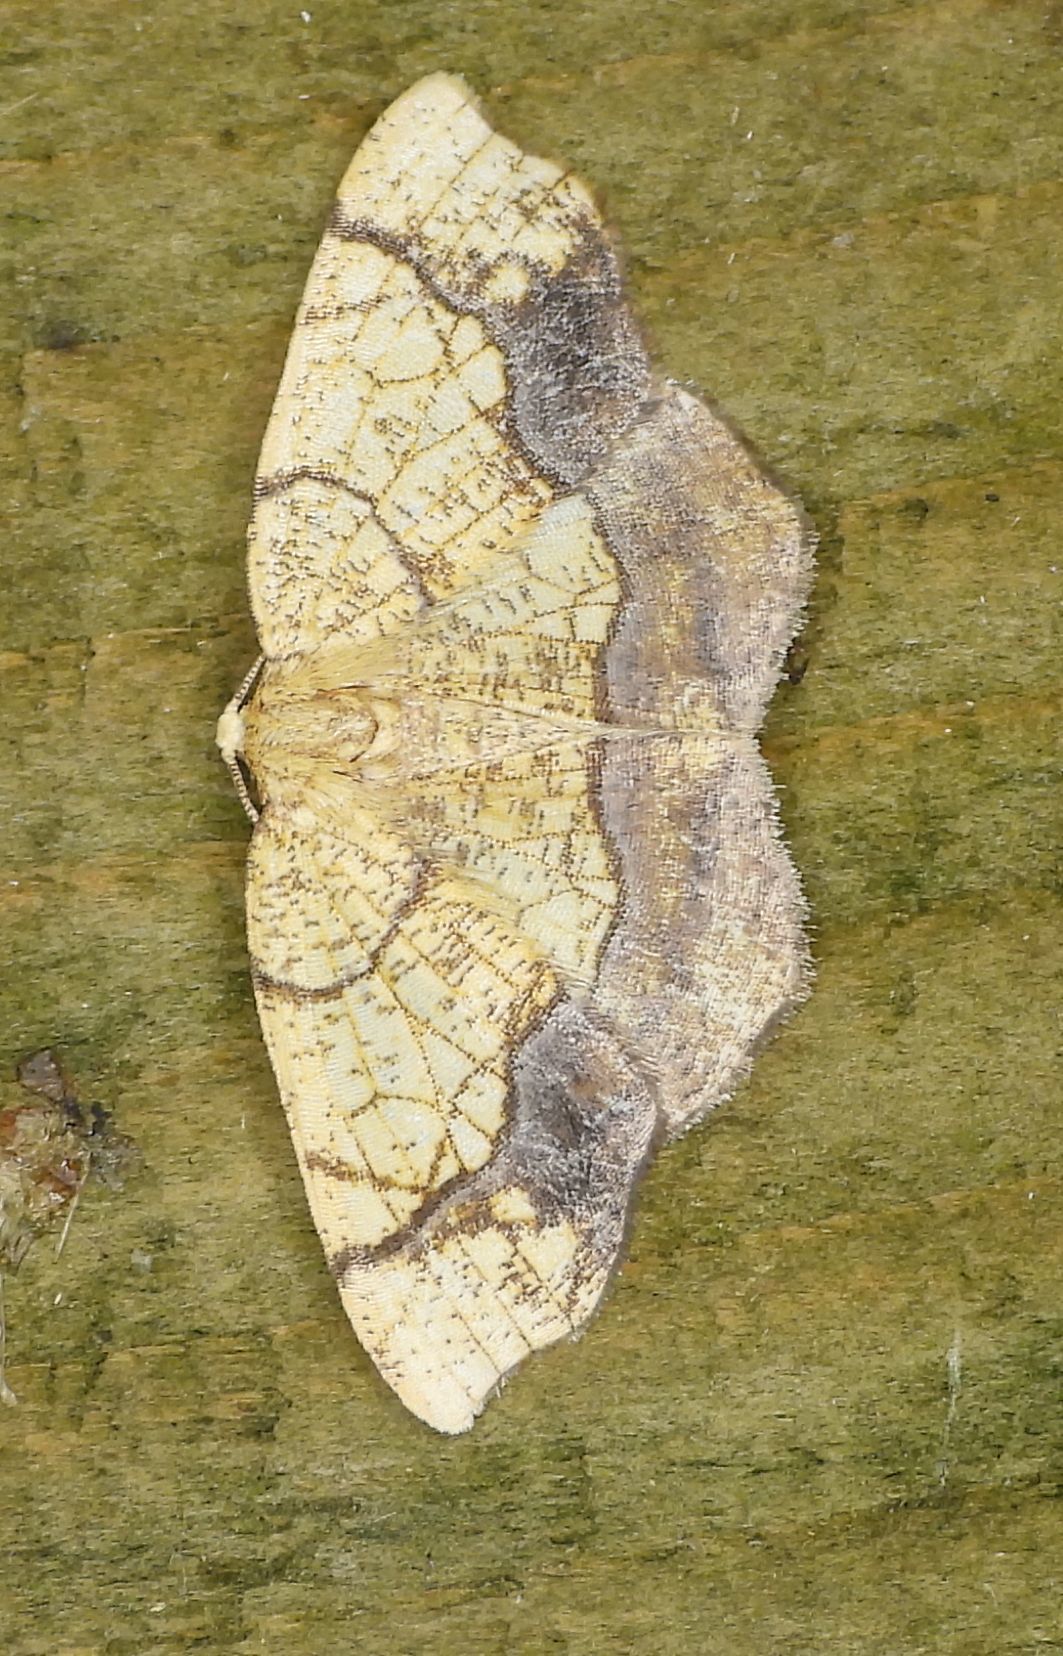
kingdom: Animalia
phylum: Arthropoda
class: Insecta
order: Lepidoptera
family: Geometridae
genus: Nematocampa
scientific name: Nematocampa resistaria
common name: Horned spanworm moth
